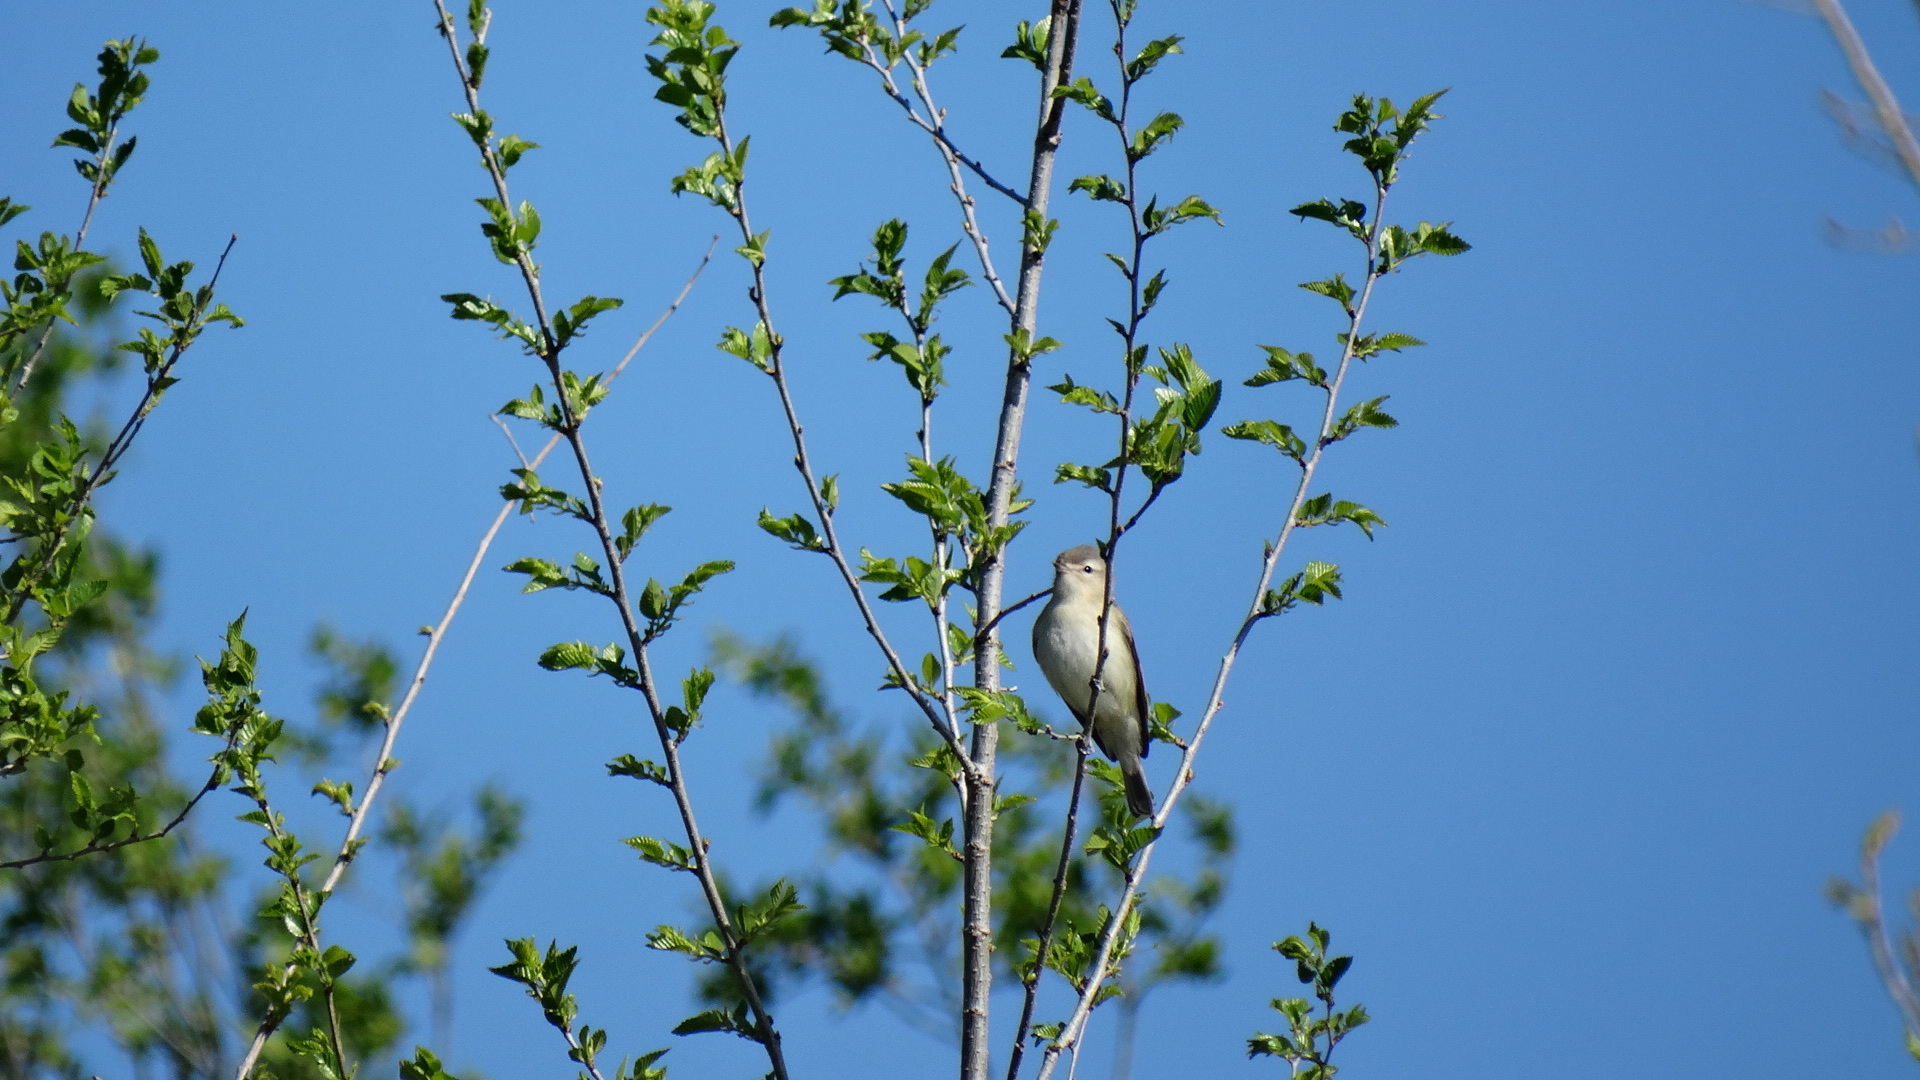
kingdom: Animalia
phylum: Chordata
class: Aves
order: Passeriformes
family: Vireonidae
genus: Vireo
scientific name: Vireo gilvus
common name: Warbling vireo
